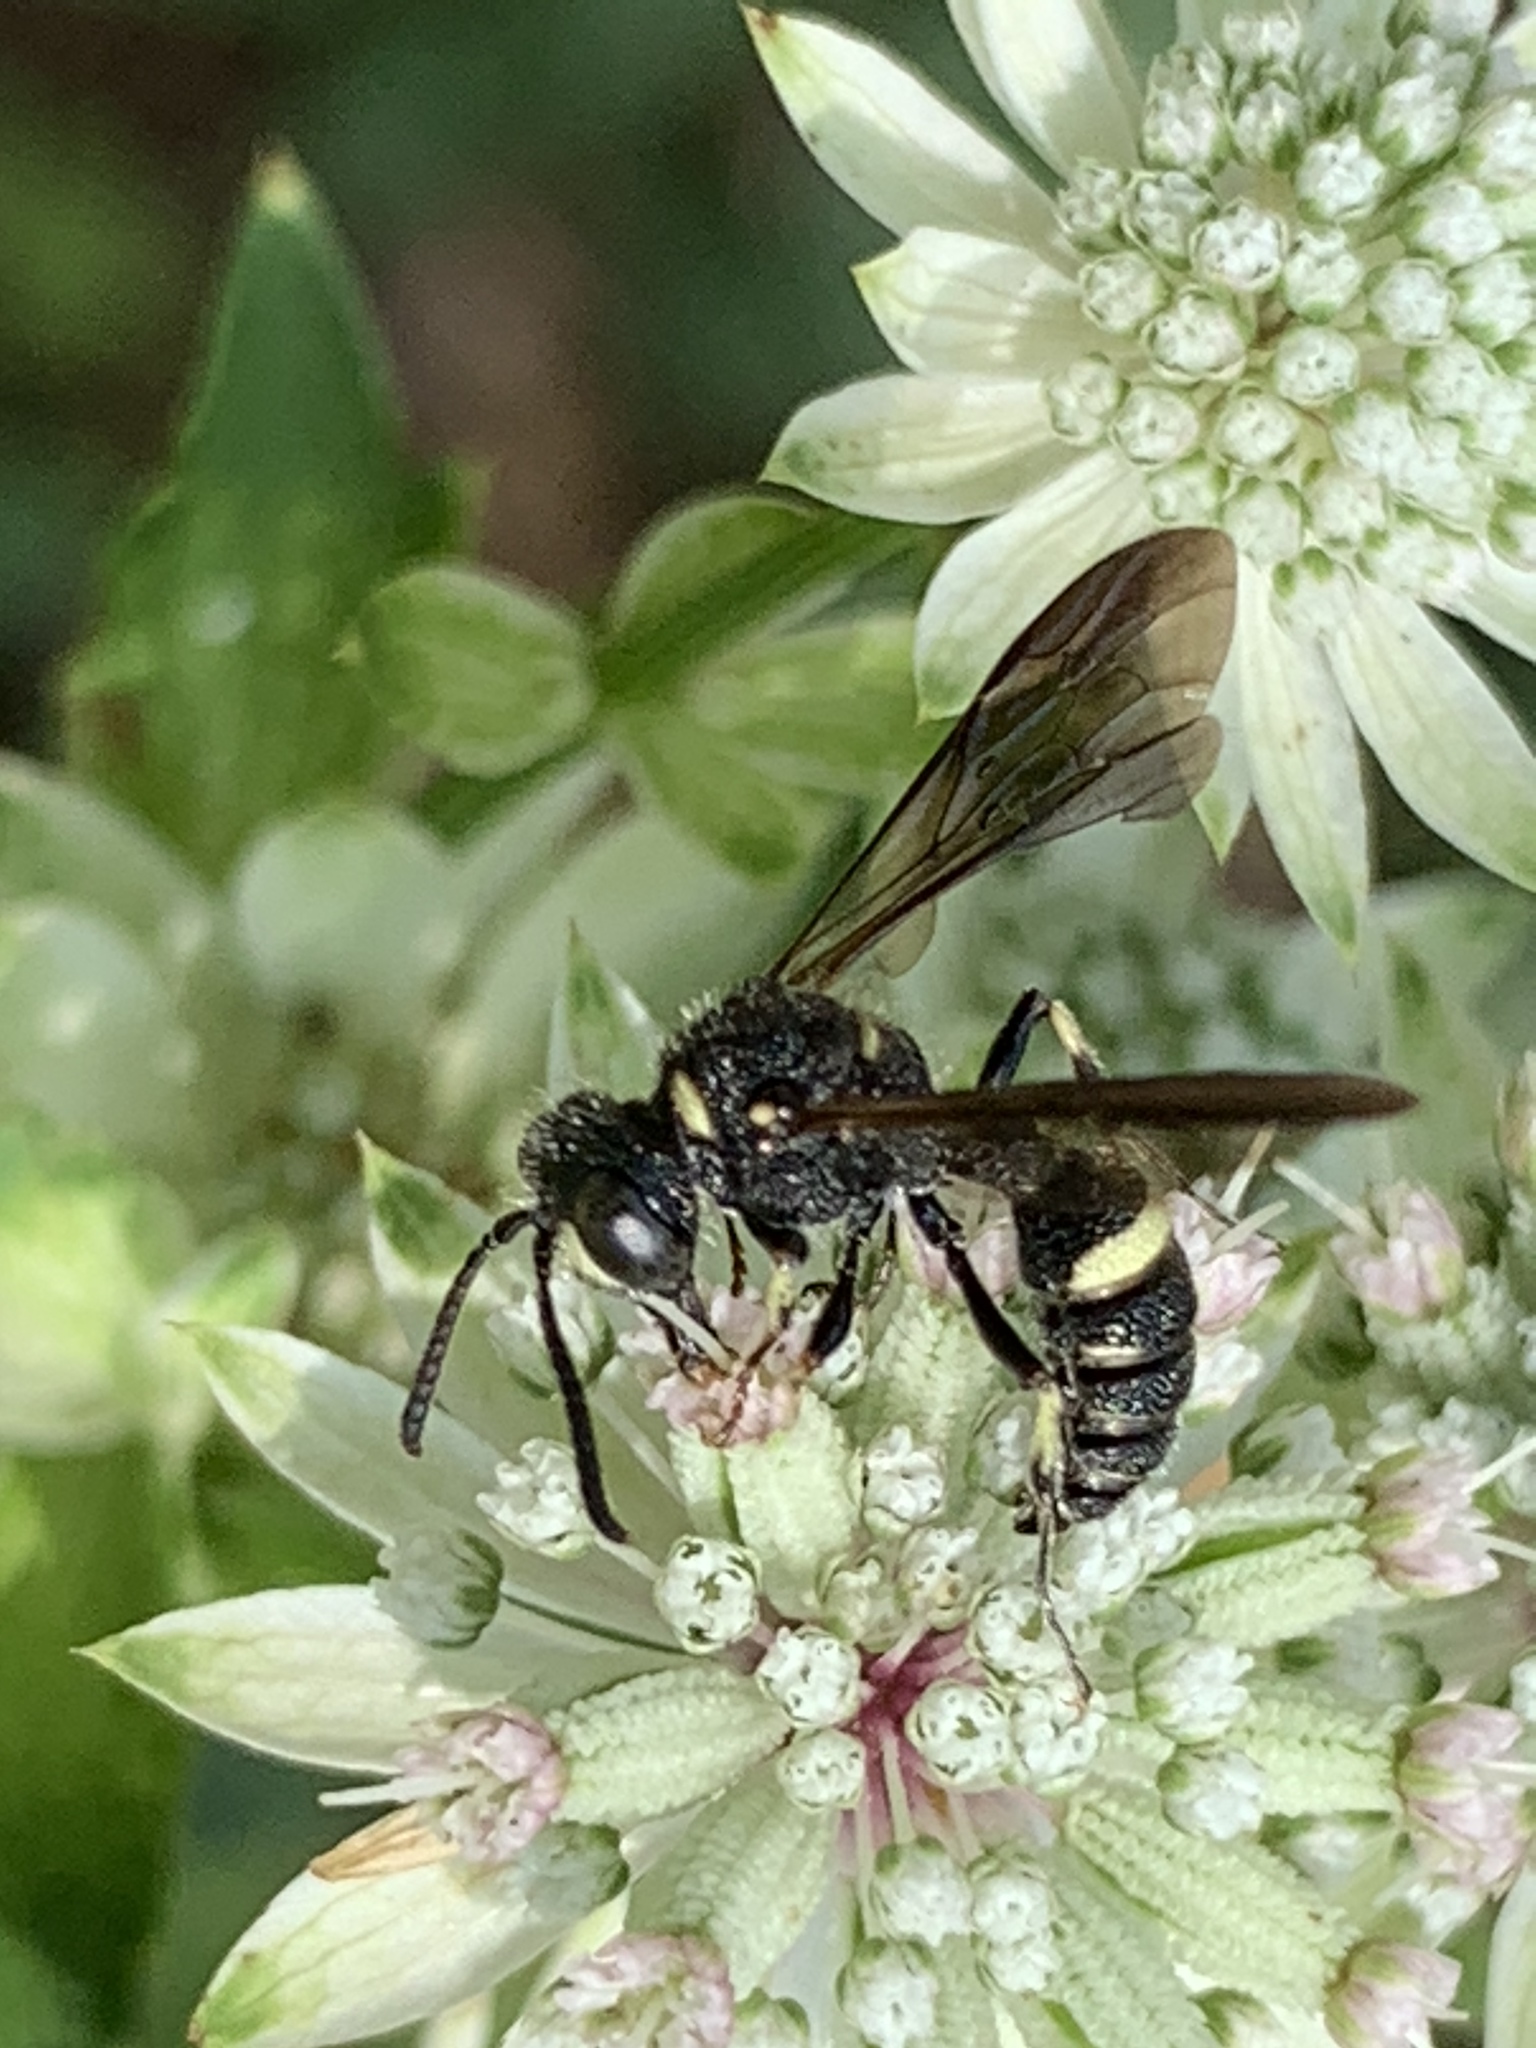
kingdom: Animalia
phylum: Arthropoda
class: Insecta
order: Hymenoptera
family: Crabronidae
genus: Cerceris
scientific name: Cerceris fumipennis
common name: Smokey-winged beetle bandit wasp
